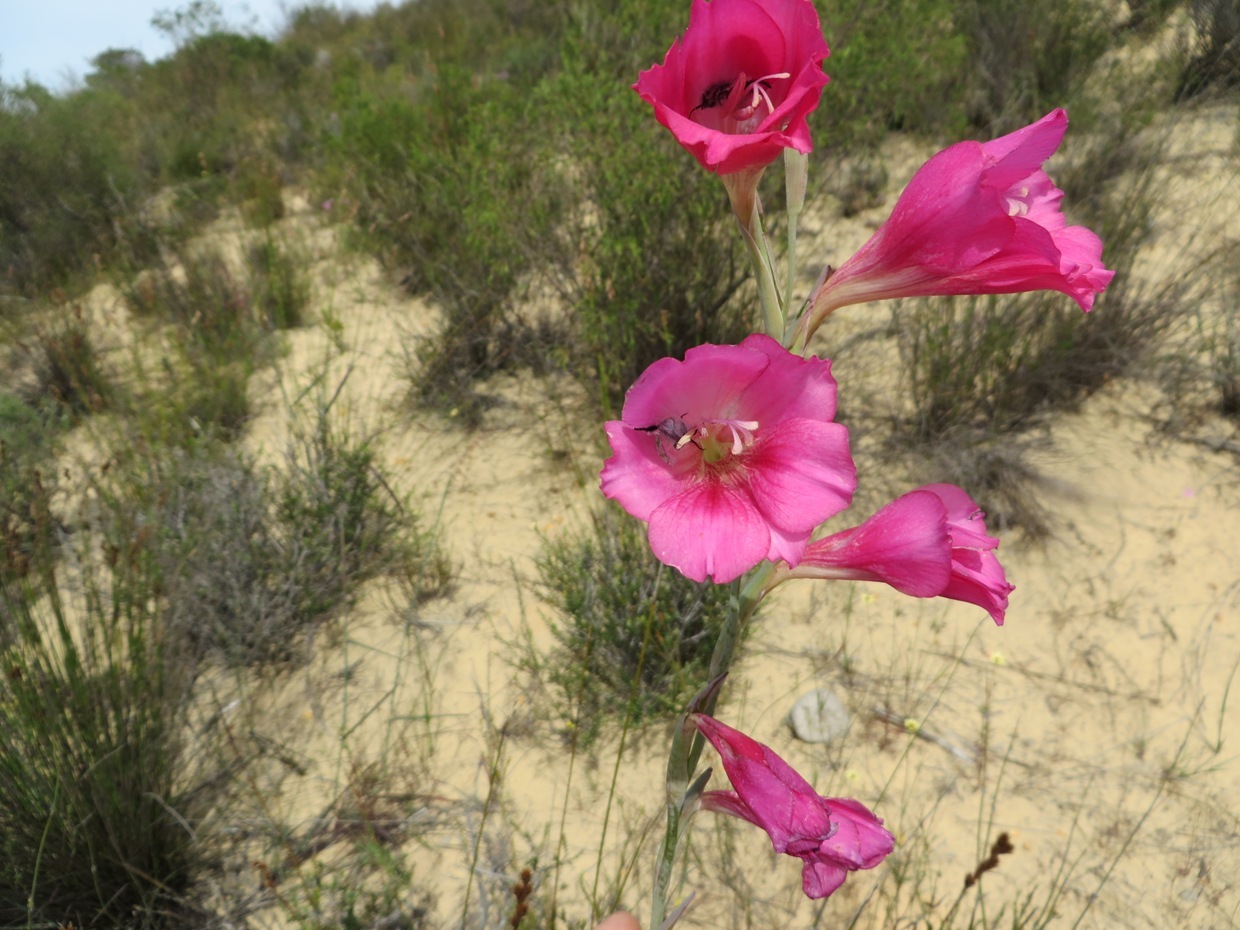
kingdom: Plantae
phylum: Tracheophyta
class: Liliopsida
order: Asparagales
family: Iridaceae
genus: Gladiolus
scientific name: Gladiolus caryophyllaceus
